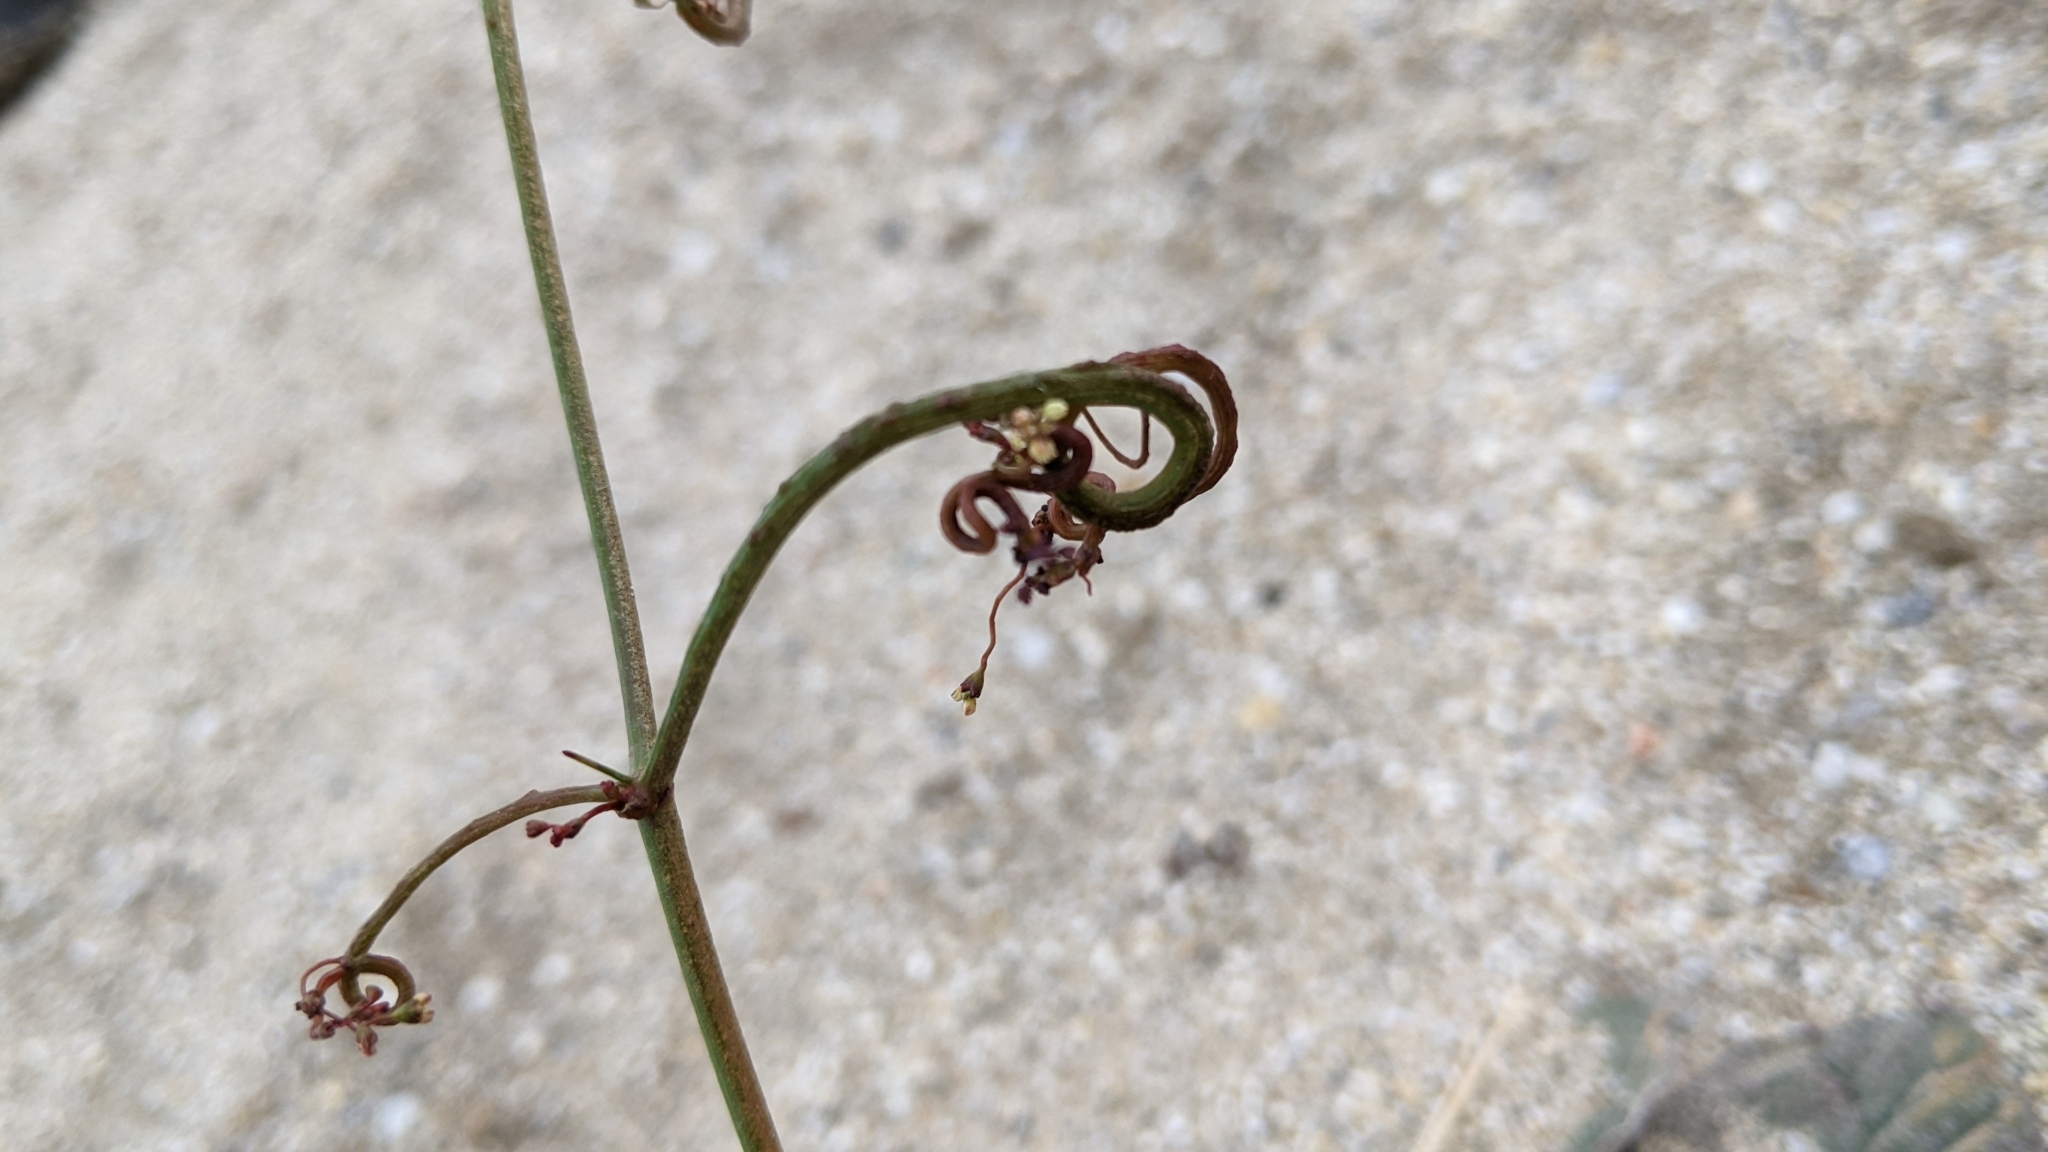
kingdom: Plantae
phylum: Tracheophyta
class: Magnoliopsida
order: Caryophyllales
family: Polygonaceae
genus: Eriogonum
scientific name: Eriogonum thomasii
